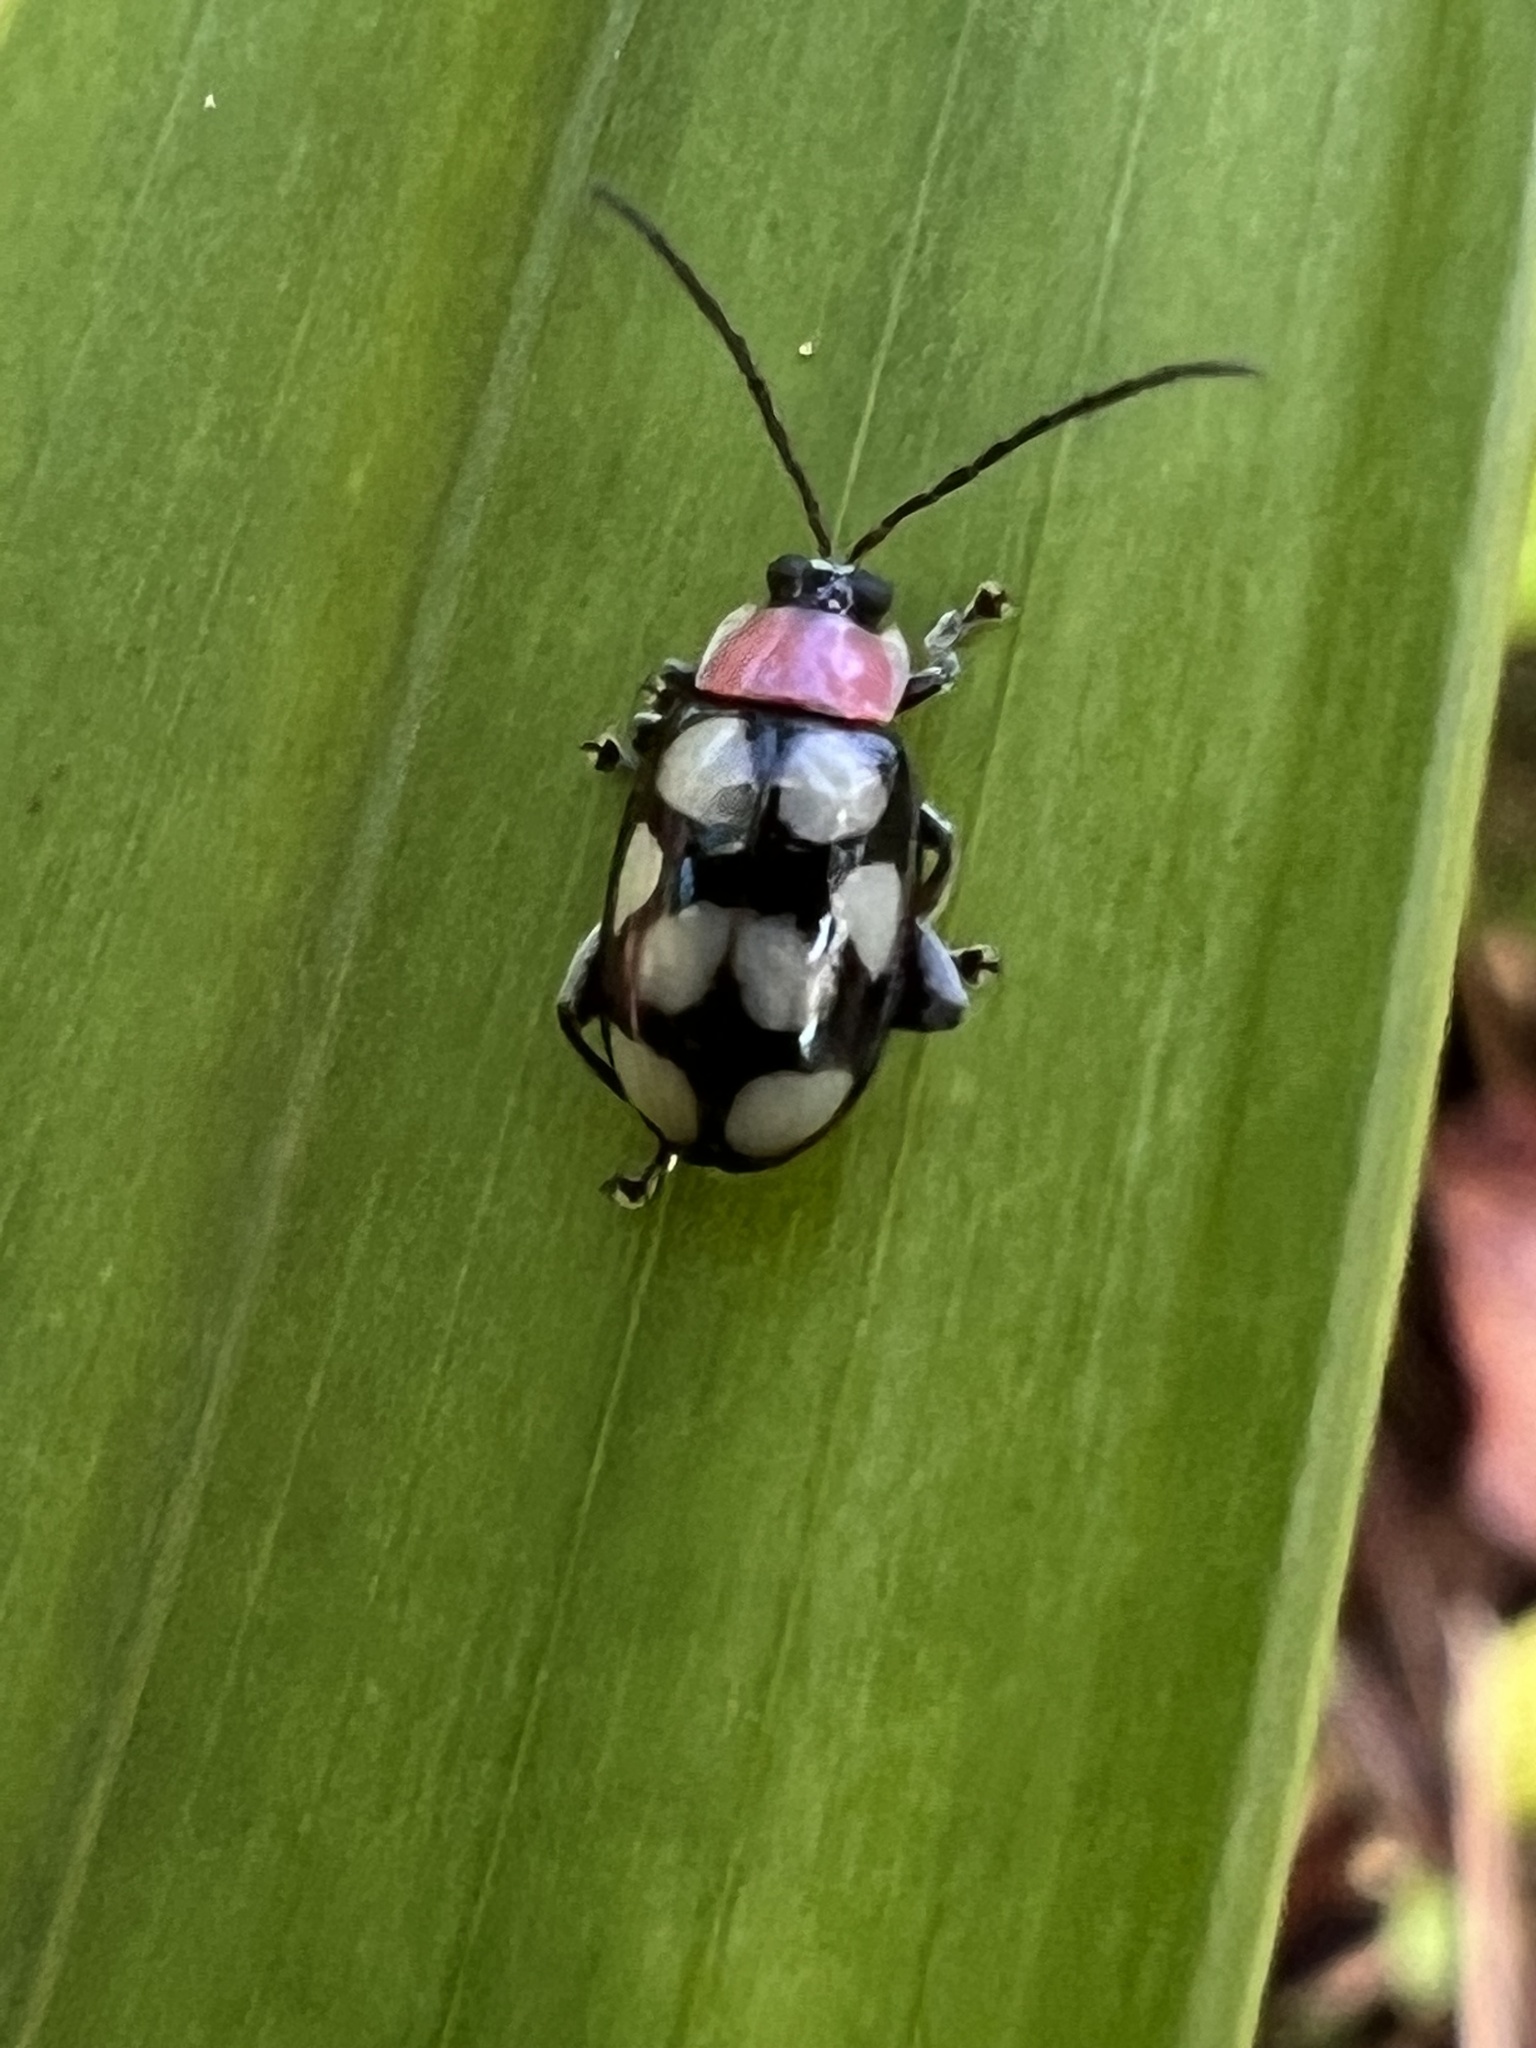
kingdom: Animalia
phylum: Arthropoda
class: Insecta
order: Coleoptera
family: Chrysomelidae
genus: Omophoita
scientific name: Omophoita aequinoctialis
